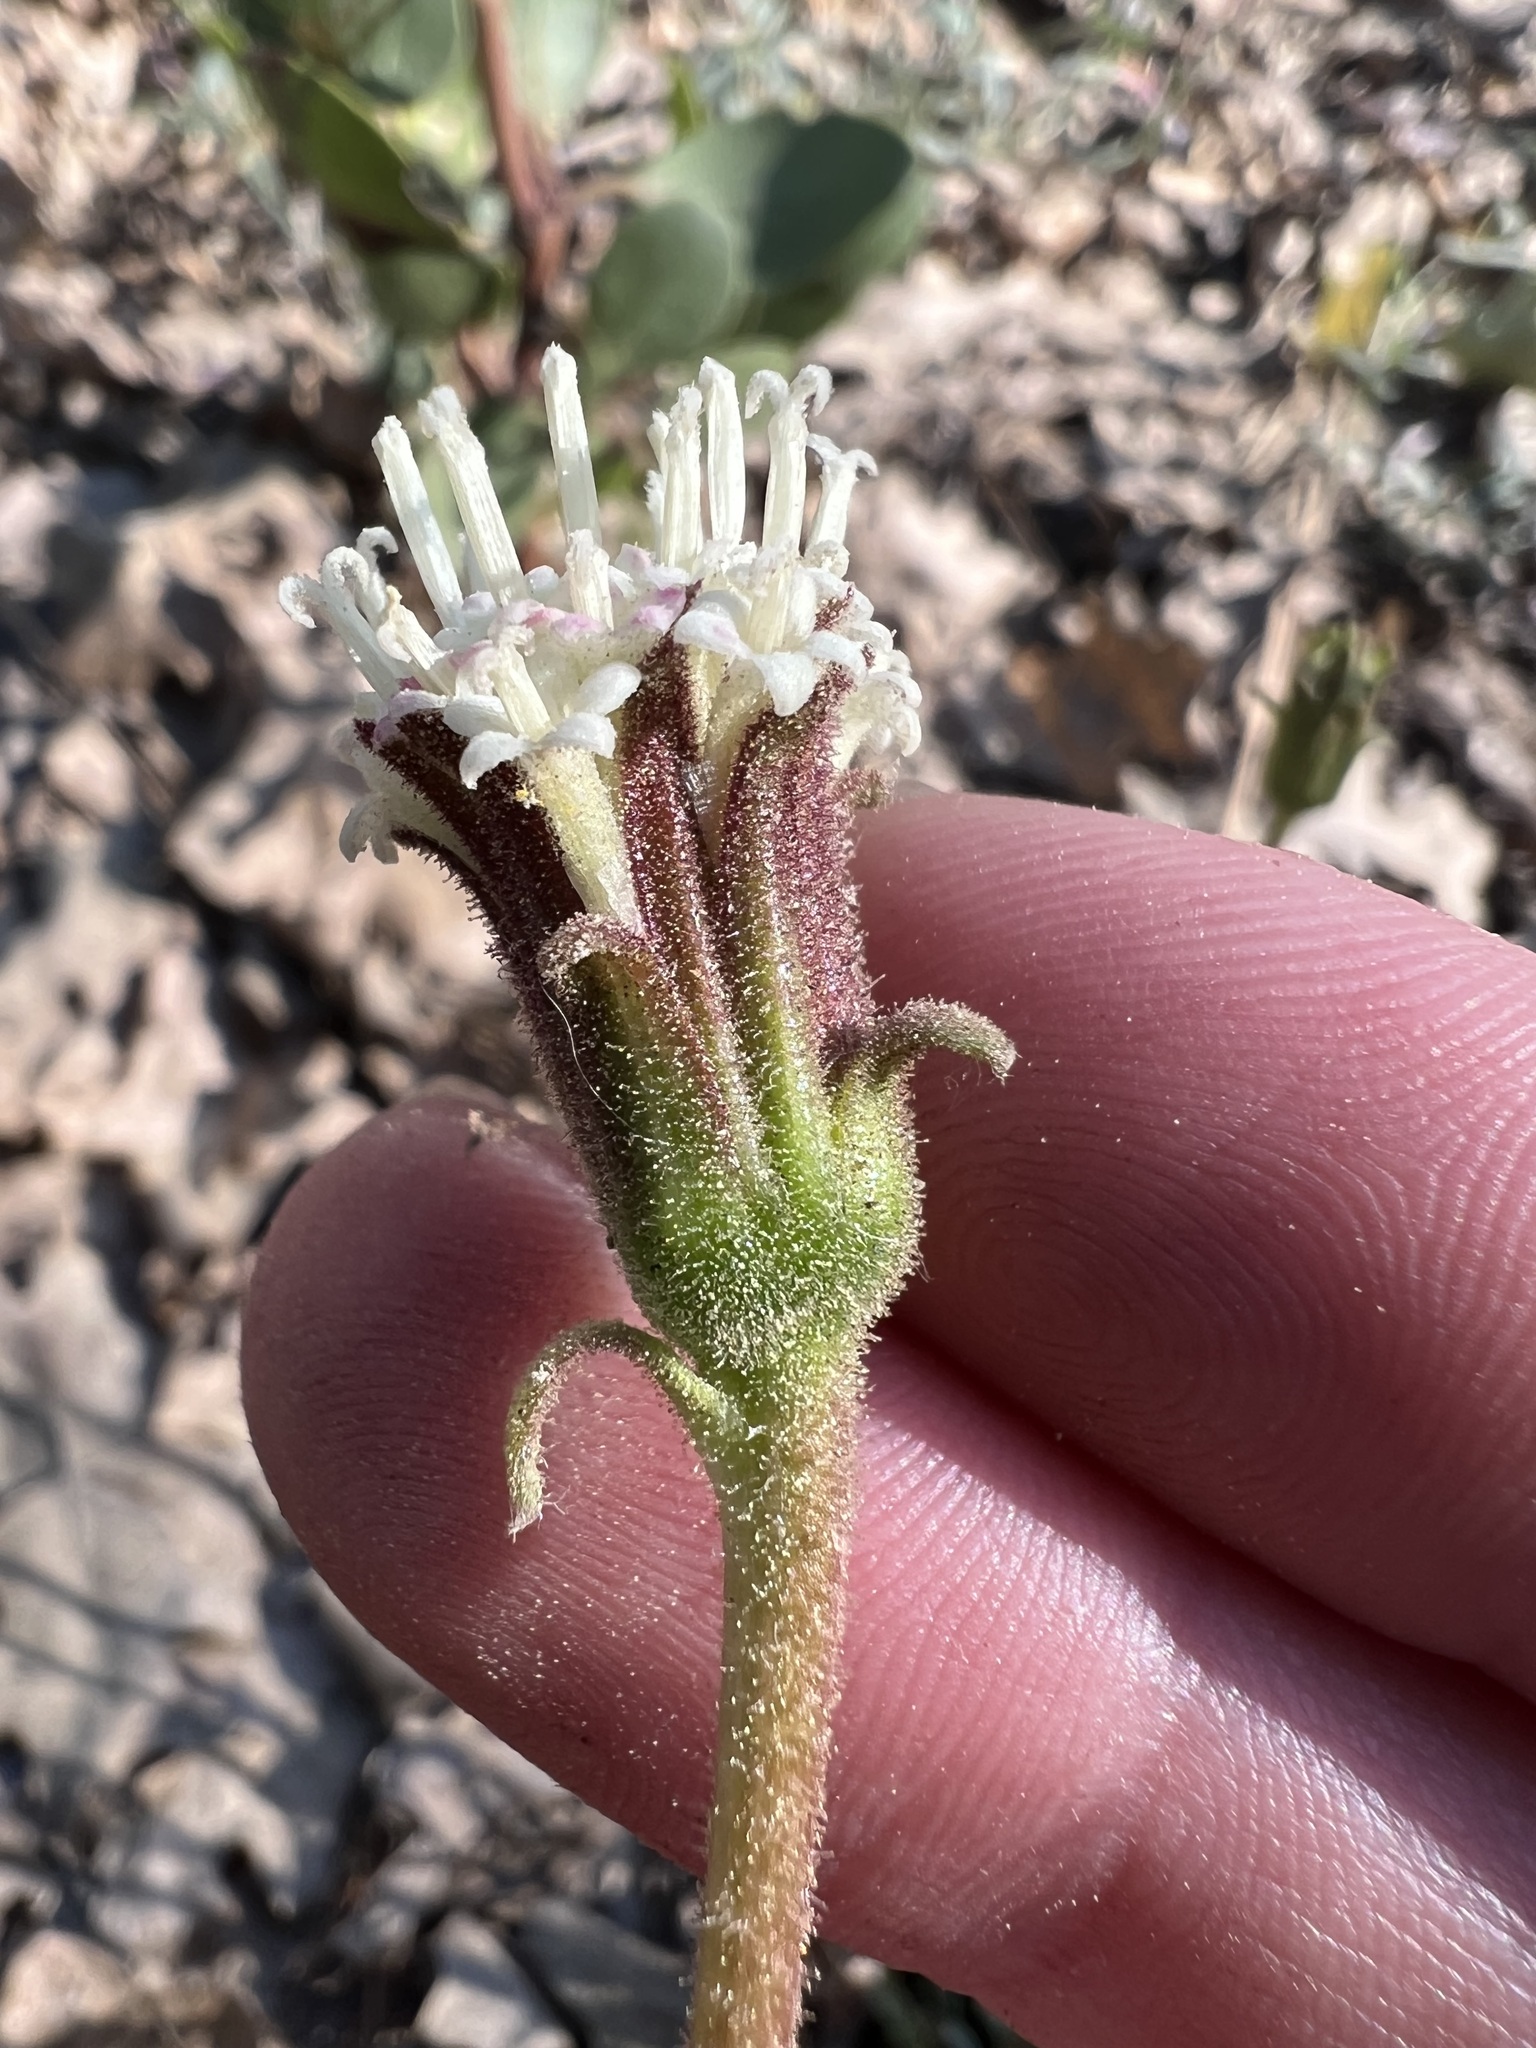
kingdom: Plantae
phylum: Tracheophyta
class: Magnoliopsida
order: Asterales
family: Asteraceae
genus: Chaenactis
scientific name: Chaenactis santolinoides
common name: Santolina pincushion
